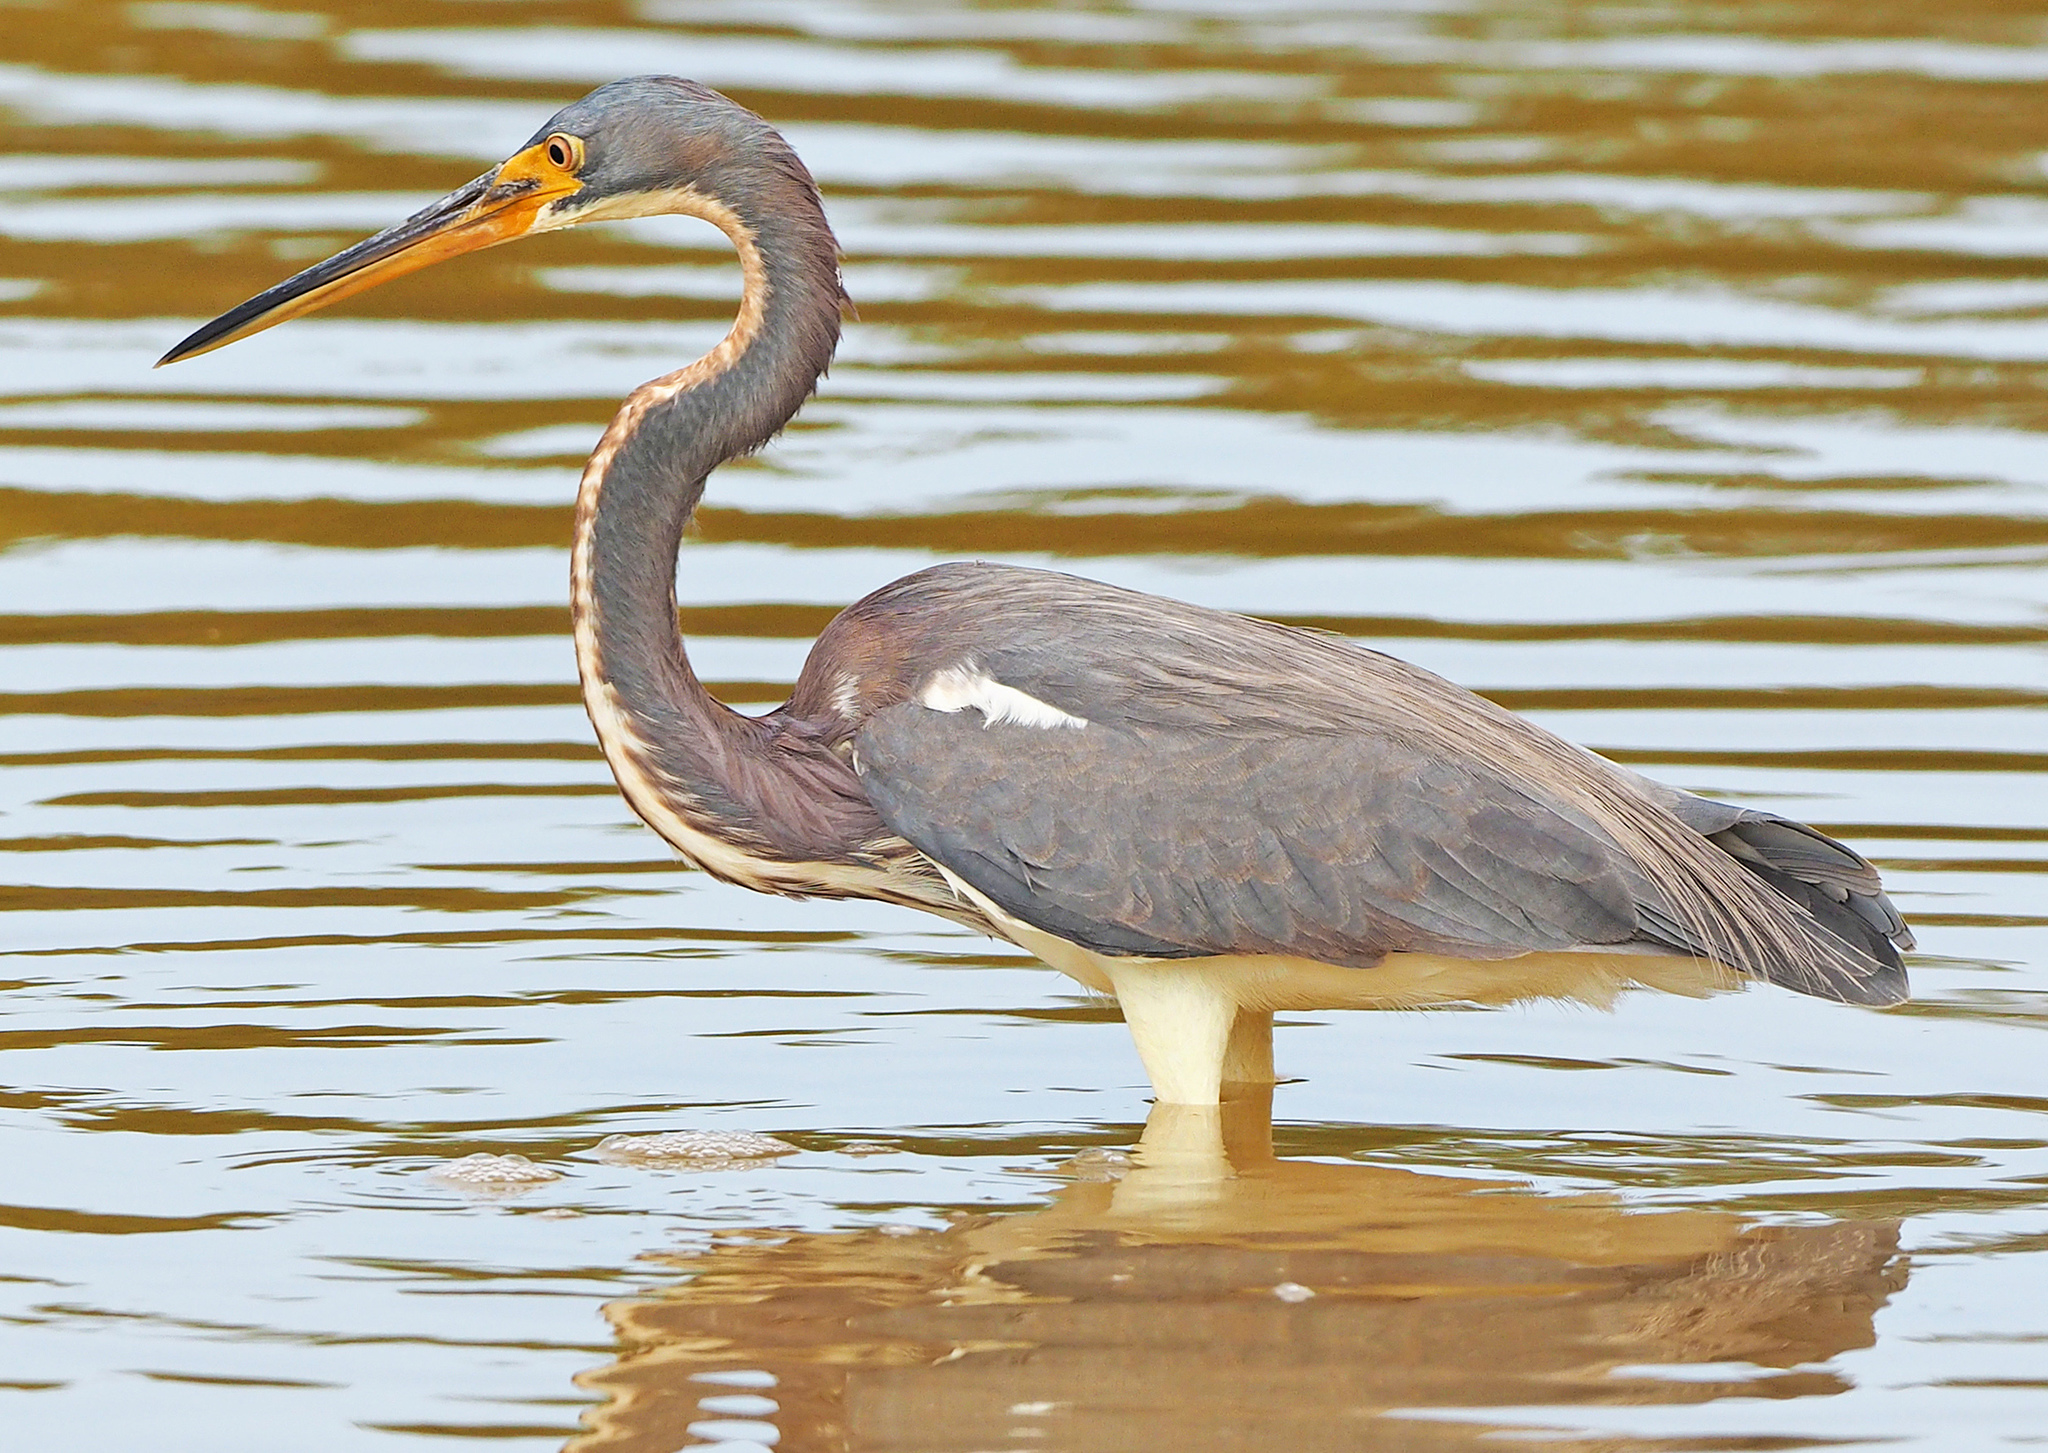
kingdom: Animalia
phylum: Chordata
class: Aves
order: Pelecaniformes
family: Ardeidae
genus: Egretta
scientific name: Egretta tricolor
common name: Tricolored heron
